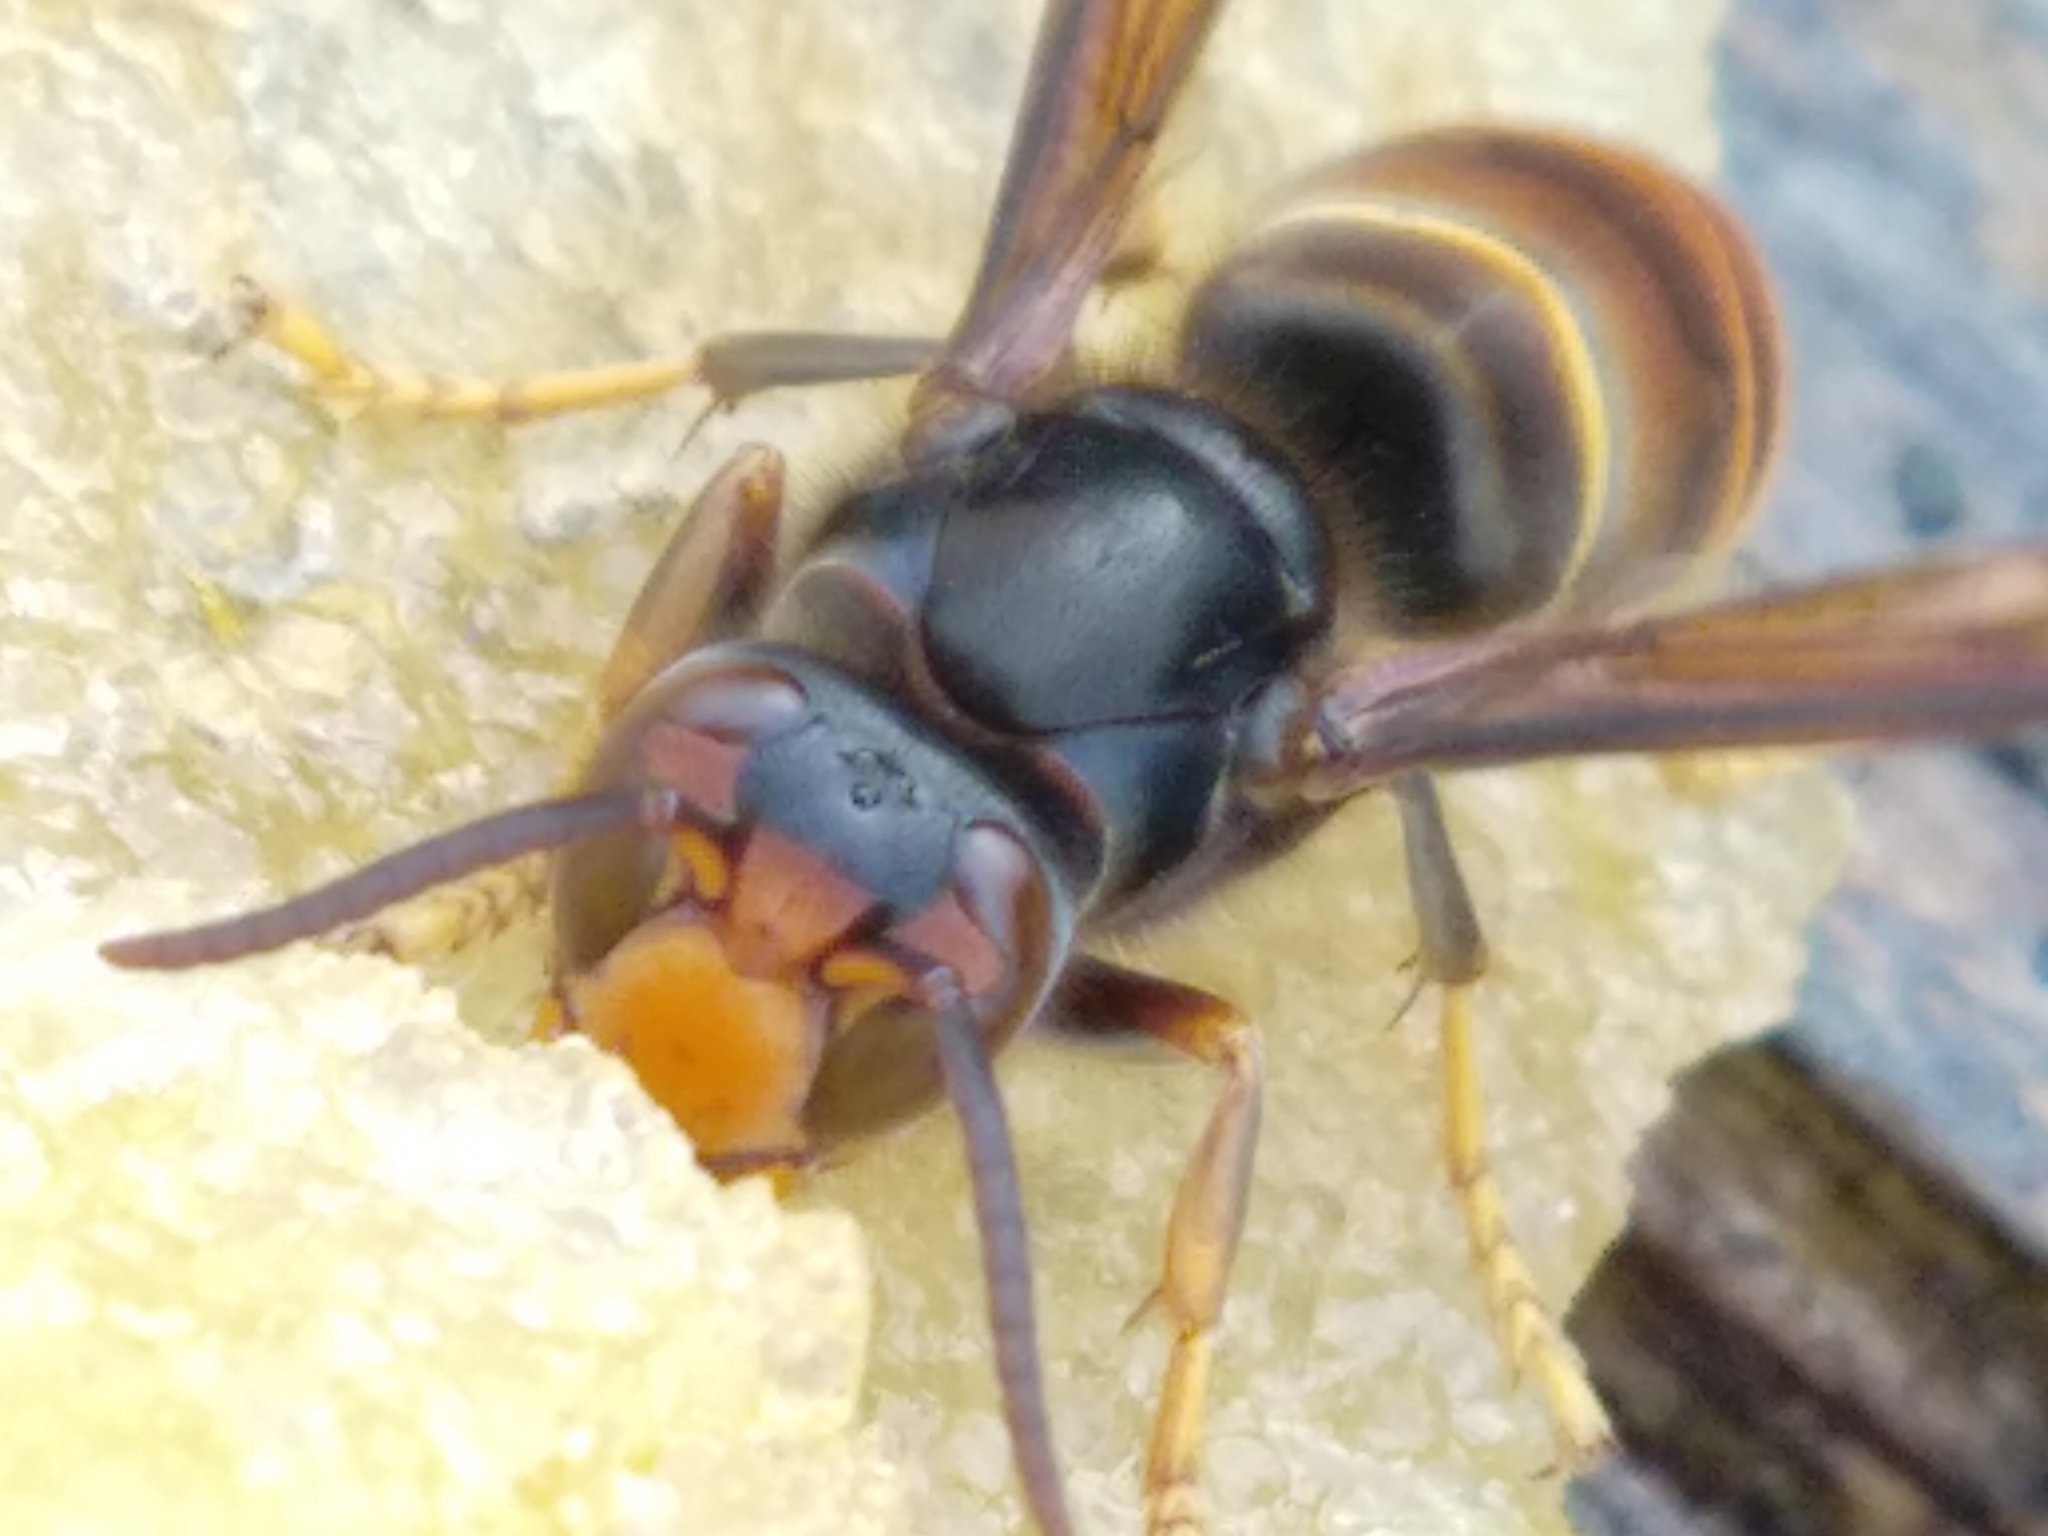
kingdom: Animalia
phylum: Arthropoda
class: Insecta
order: Hymenoptera
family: Vespidae
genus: Vespa
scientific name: Vespa velutina
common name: Asian hornet
